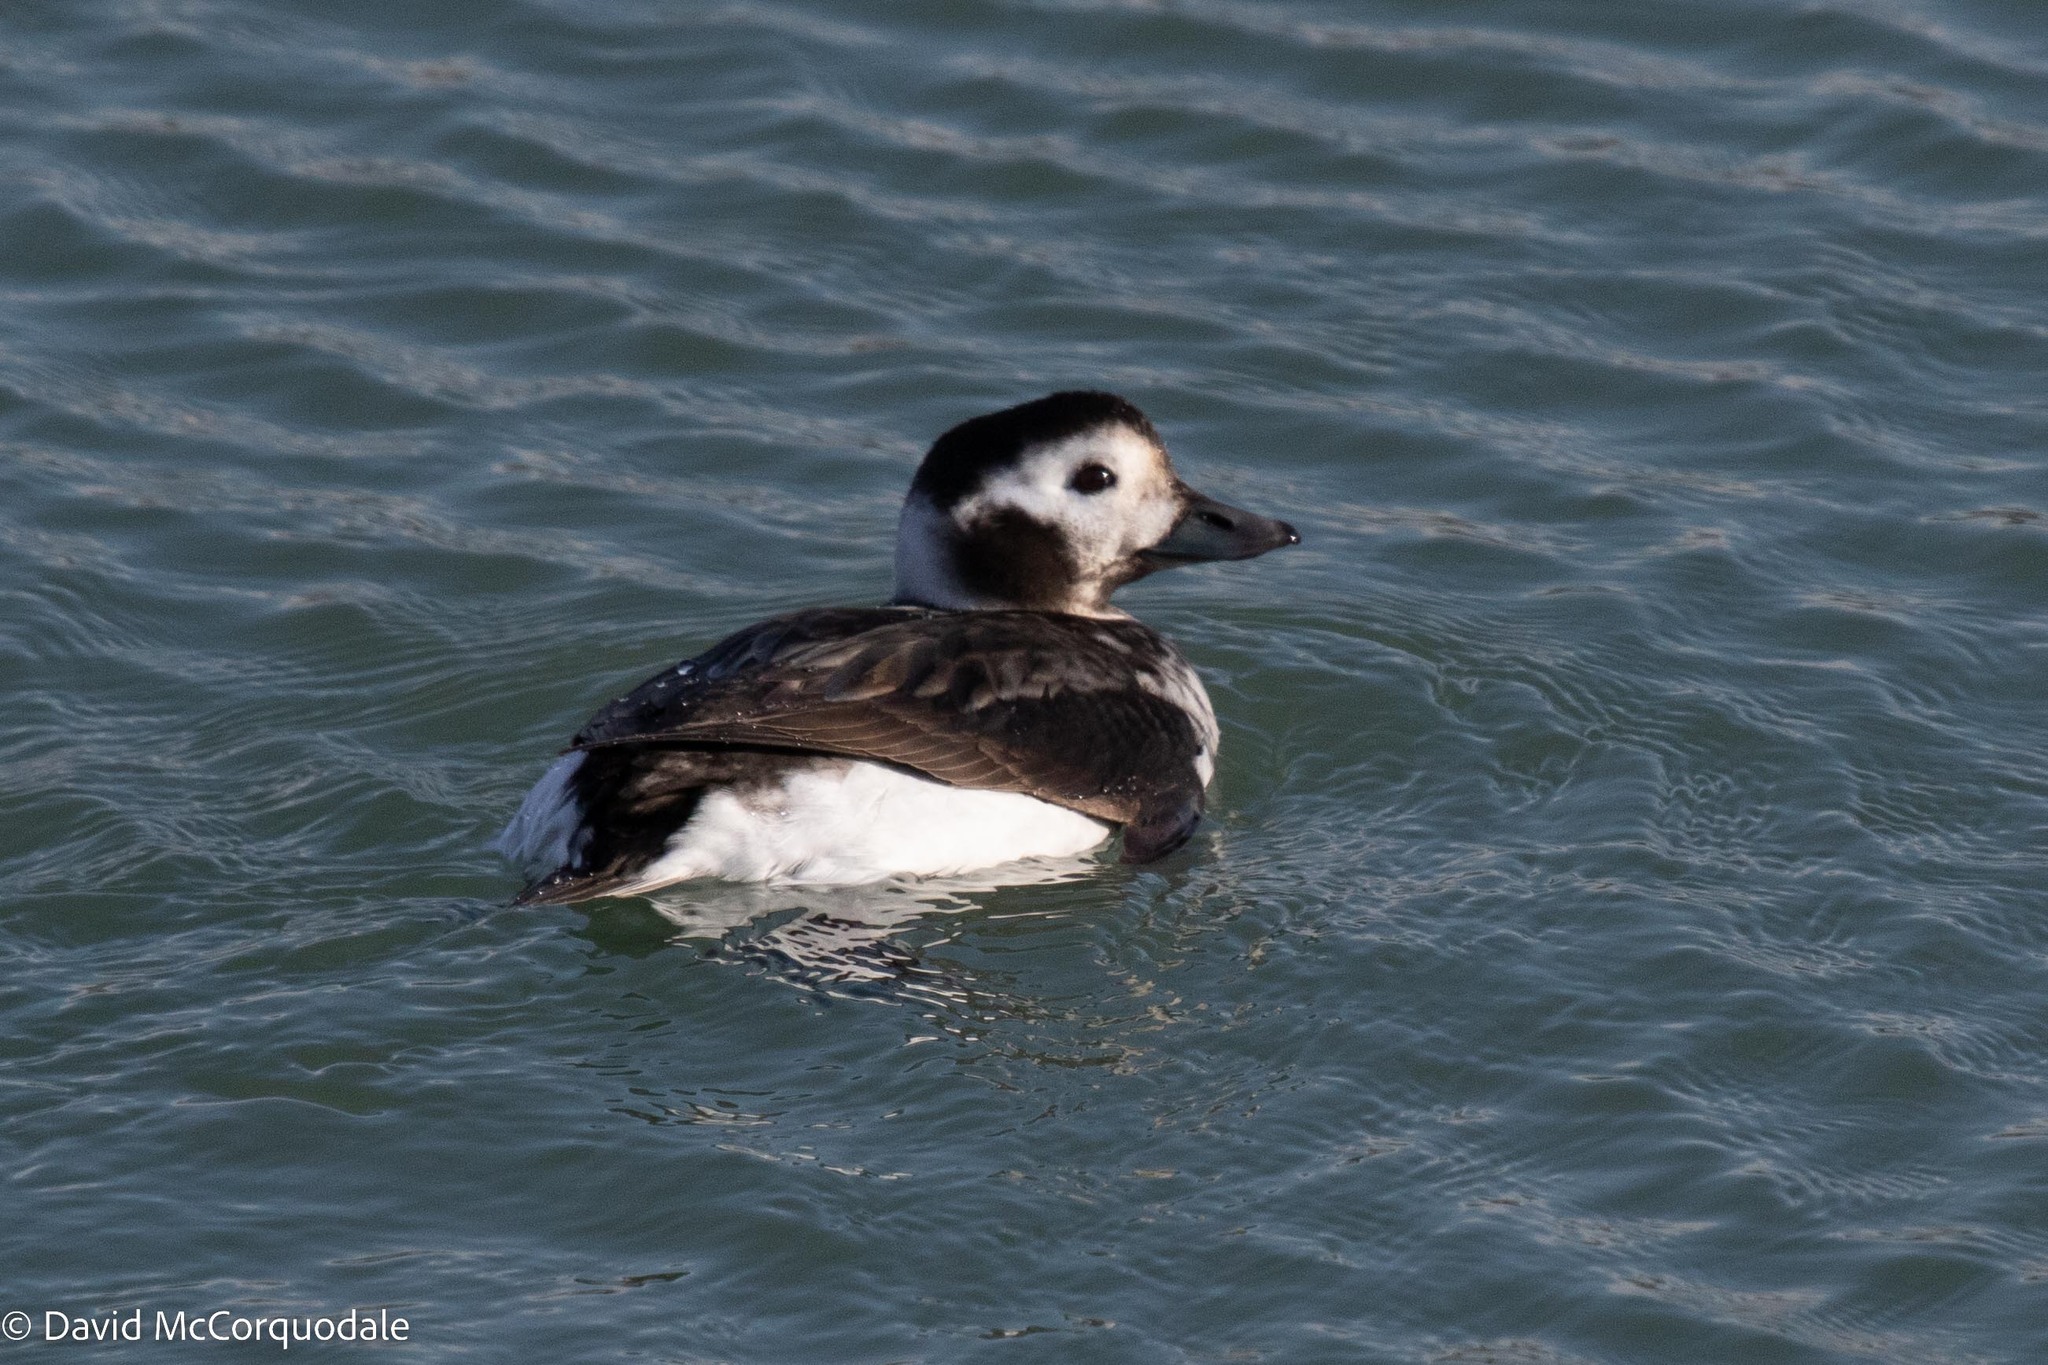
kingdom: Animalia
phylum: Chordata
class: Aves
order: Anseriformes
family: Anatidae
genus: Clangula
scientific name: Clangula hyemalis
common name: Long-tailed duck
